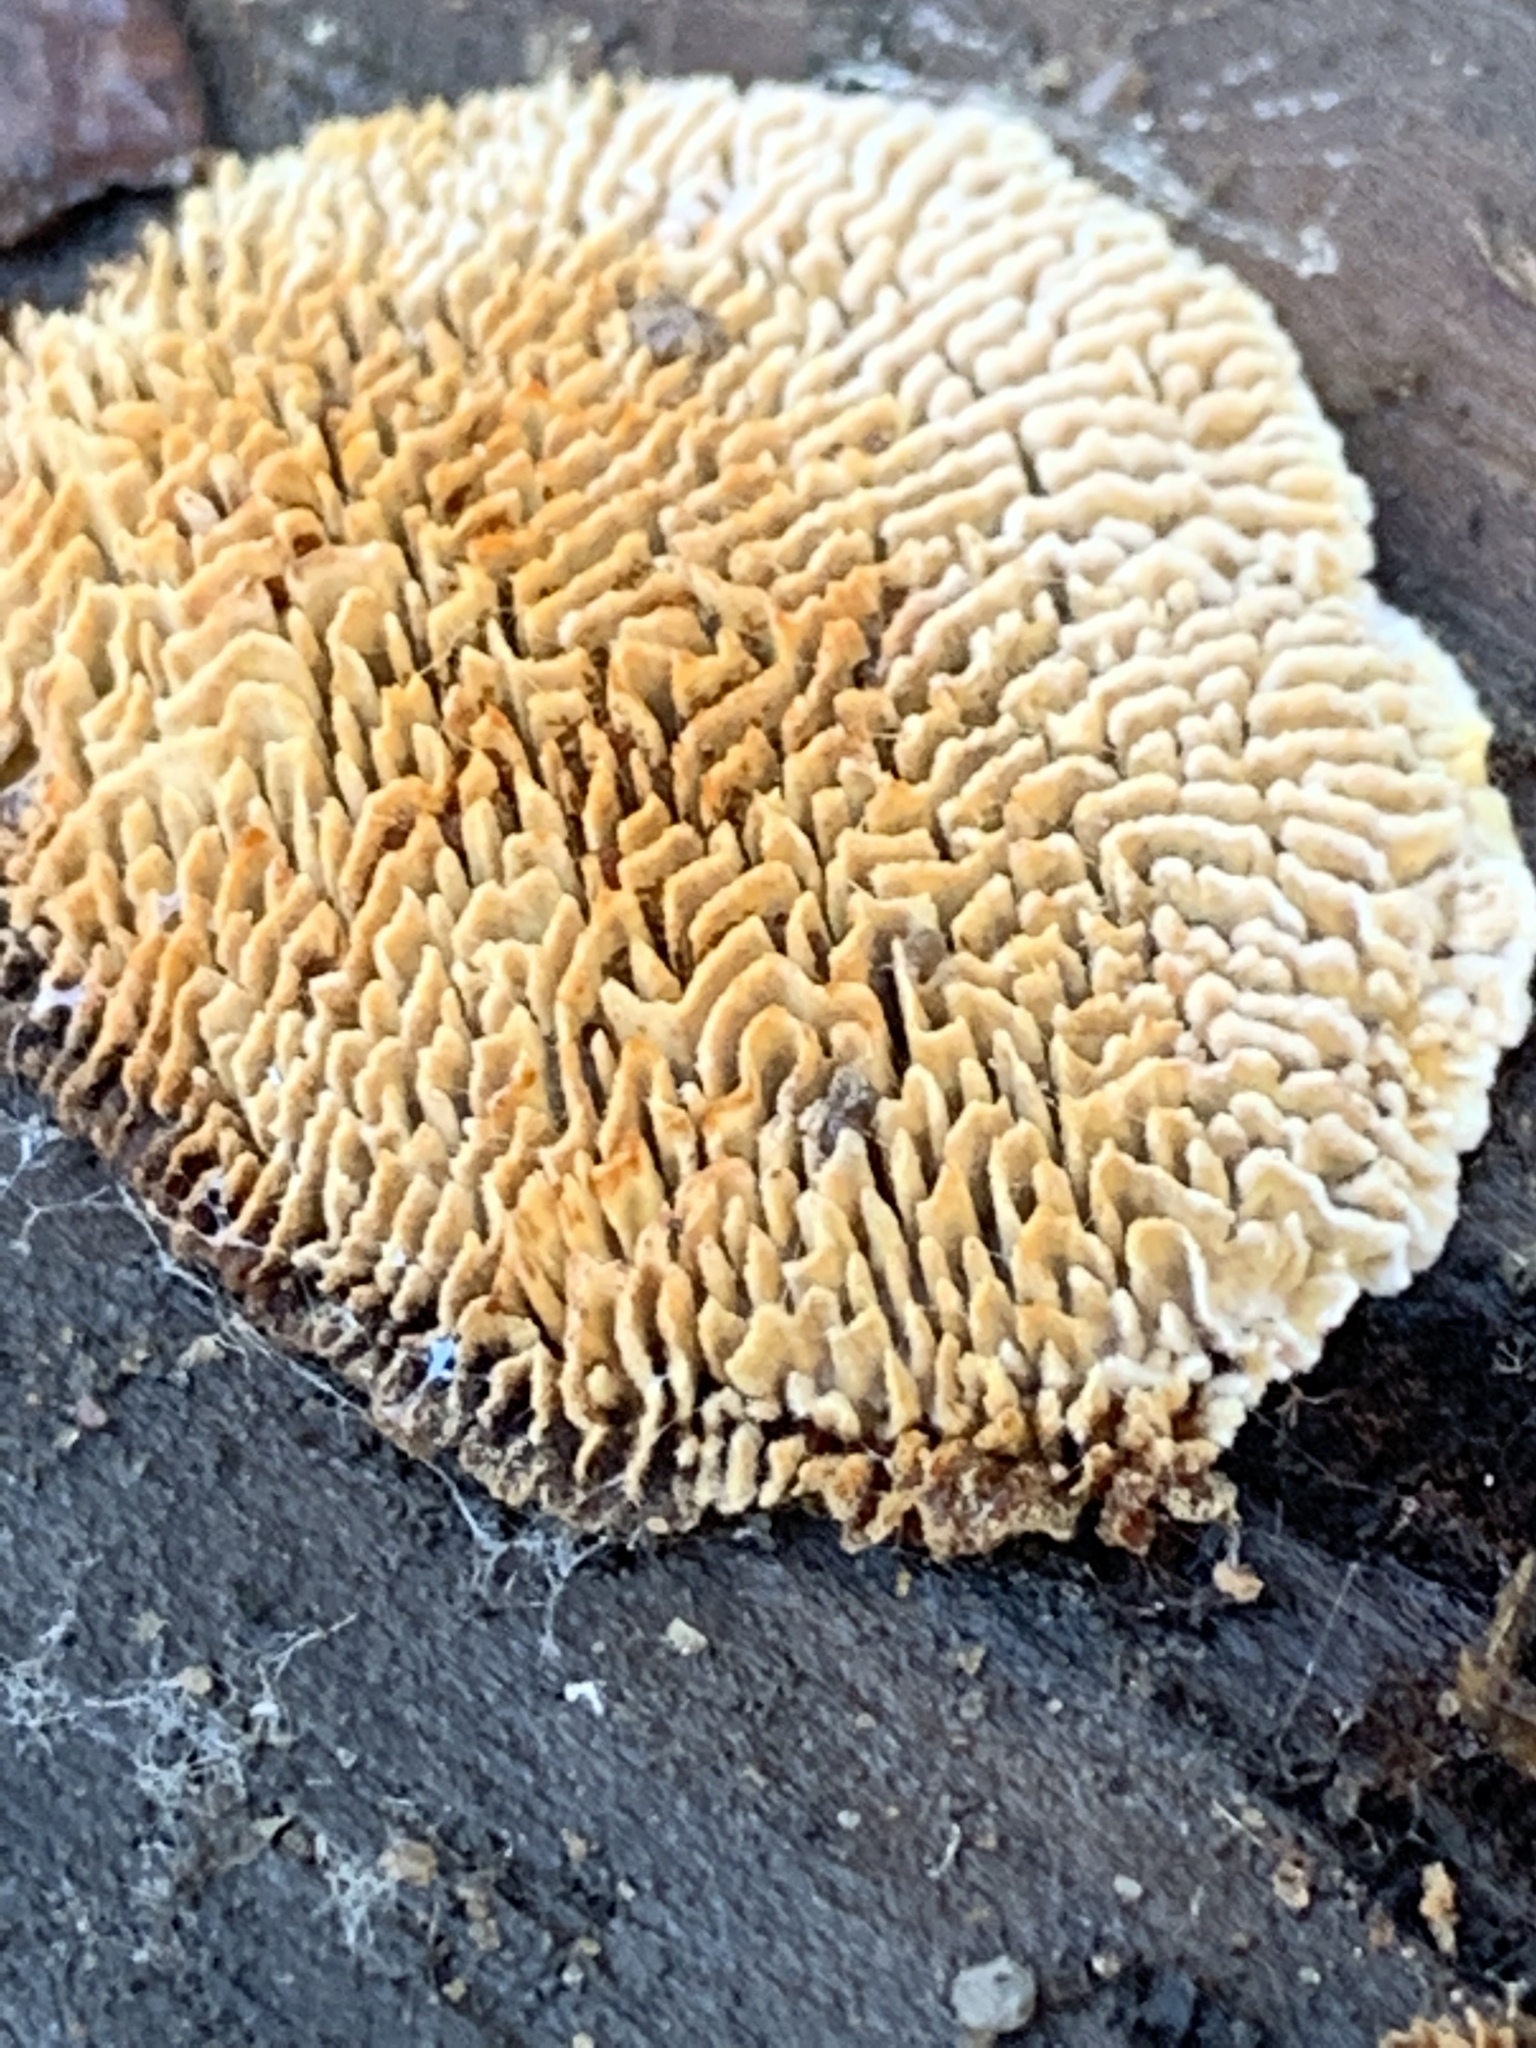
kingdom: Fungi
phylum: Basidiomycota
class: Agaricomycetes
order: Polyporales
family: Fomitopsidaceae
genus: Fomitopsis
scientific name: Fomitopsis
